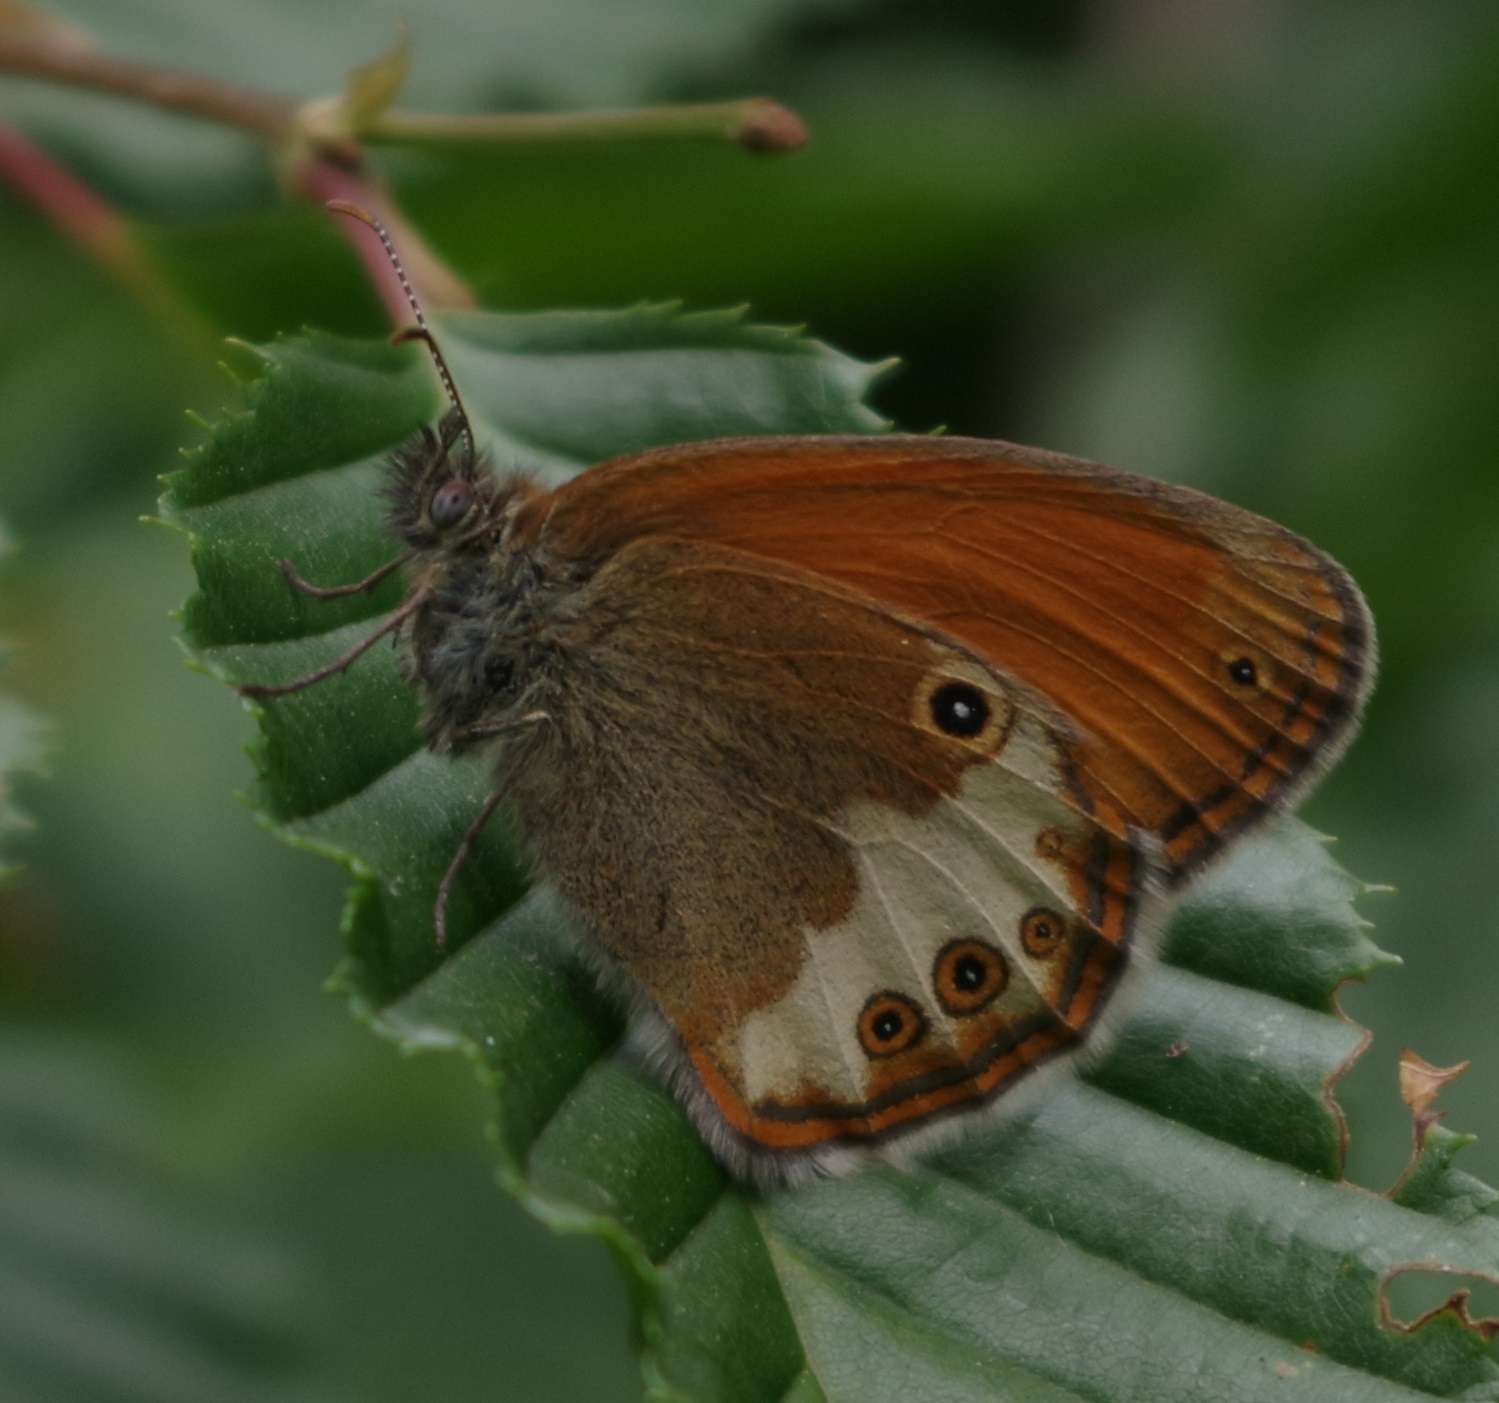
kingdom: Animalia
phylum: Arthropoda
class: Insecta
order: Lepidoptera
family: Nymphalidae
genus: Coenonympha
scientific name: Coenonympha arcania
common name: Pearly heath
